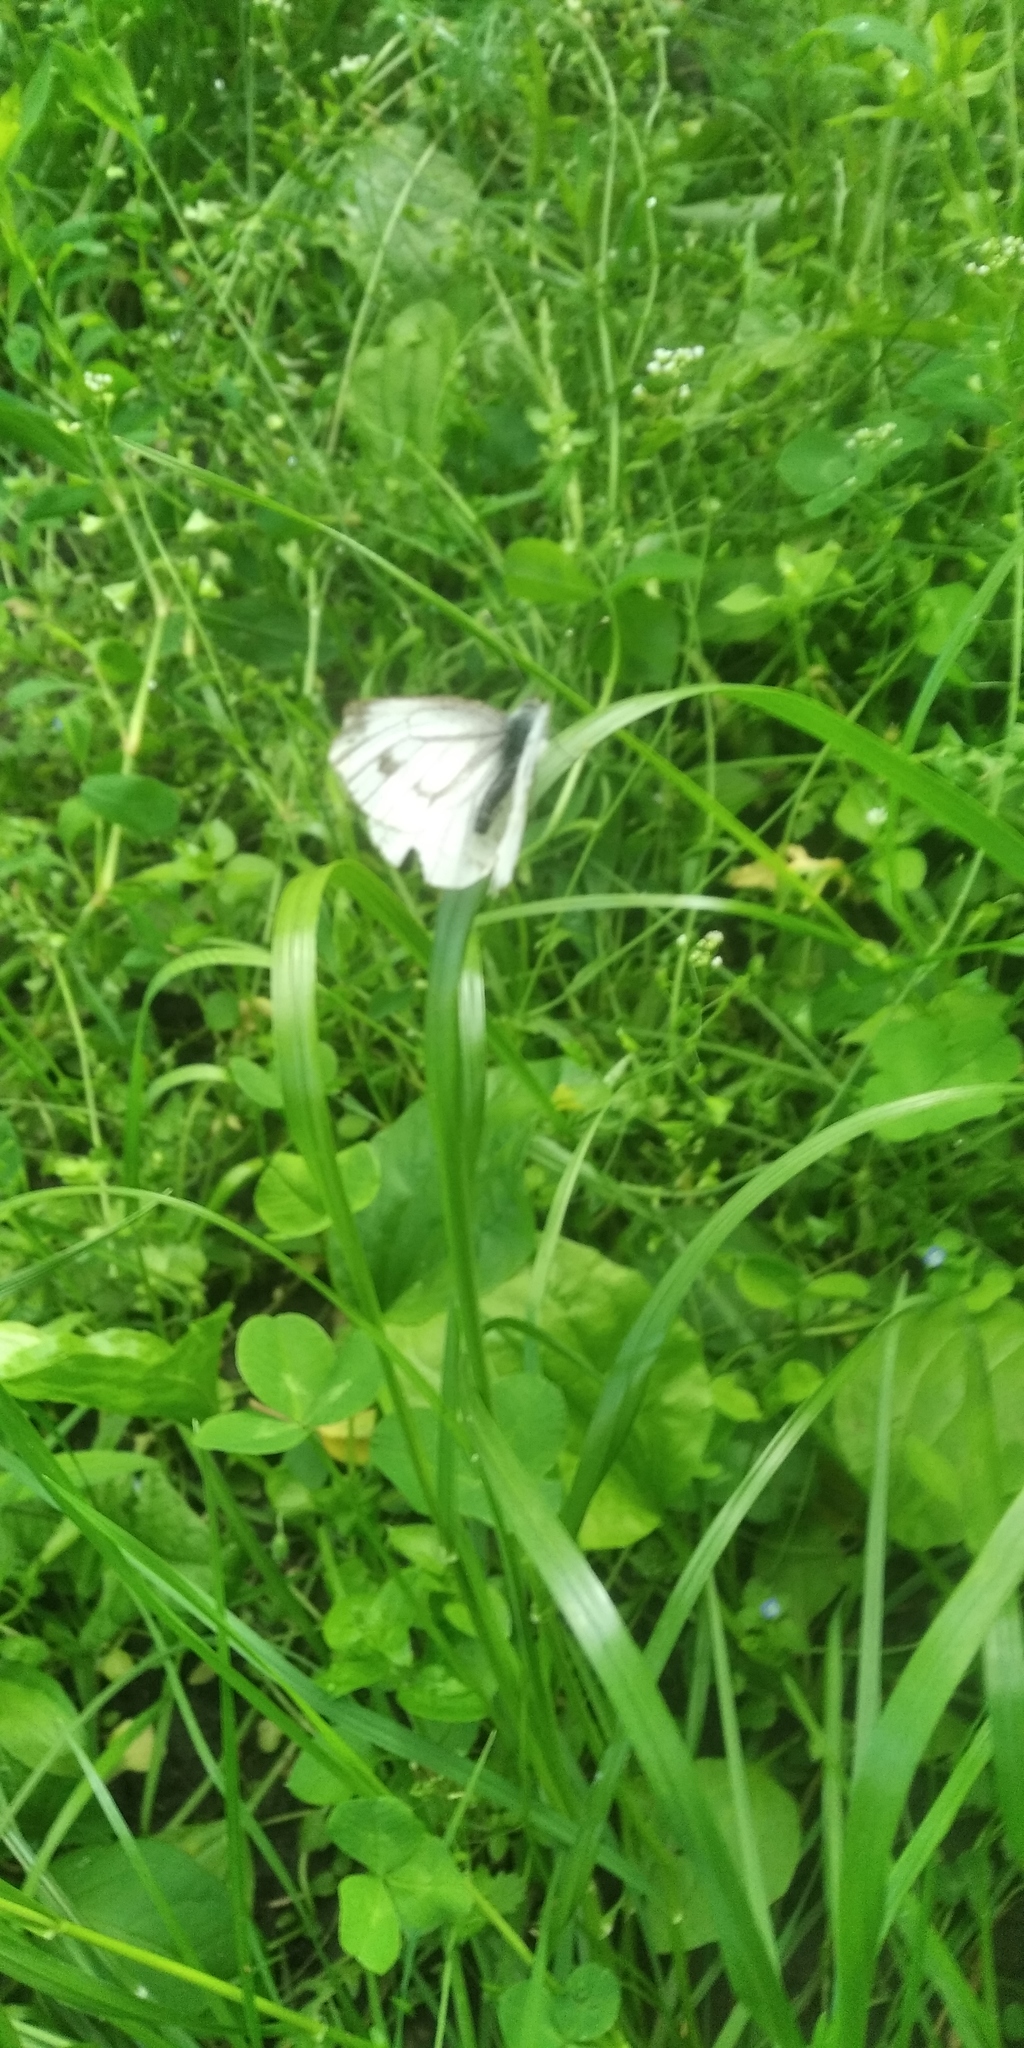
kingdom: Animalia
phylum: Arthropoda
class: Insecta
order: Lepidoptera
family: Pieridae
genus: Pieris
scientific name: Pieris napi
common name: Green-veined white
